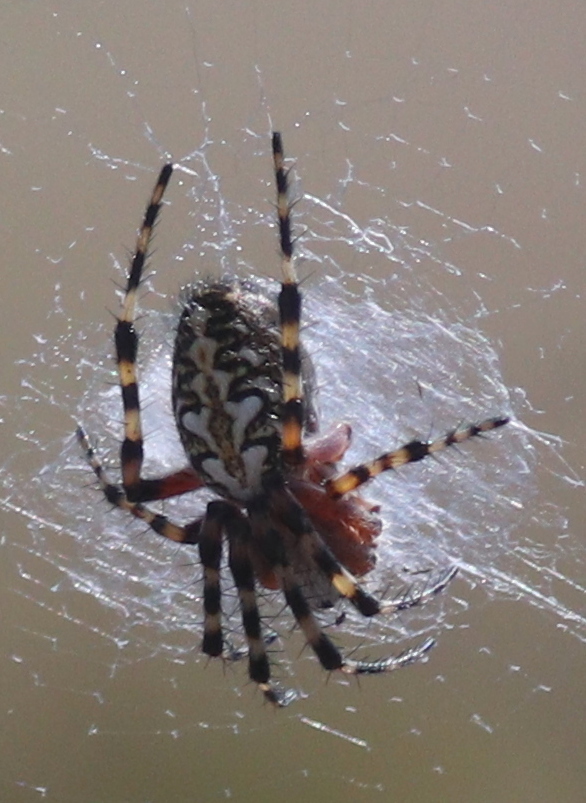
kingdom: Animalia
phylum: Arthropoda
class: Arachnida
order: Araneae
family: Araneidae
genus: Araneus
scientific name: Araneus annulipes
